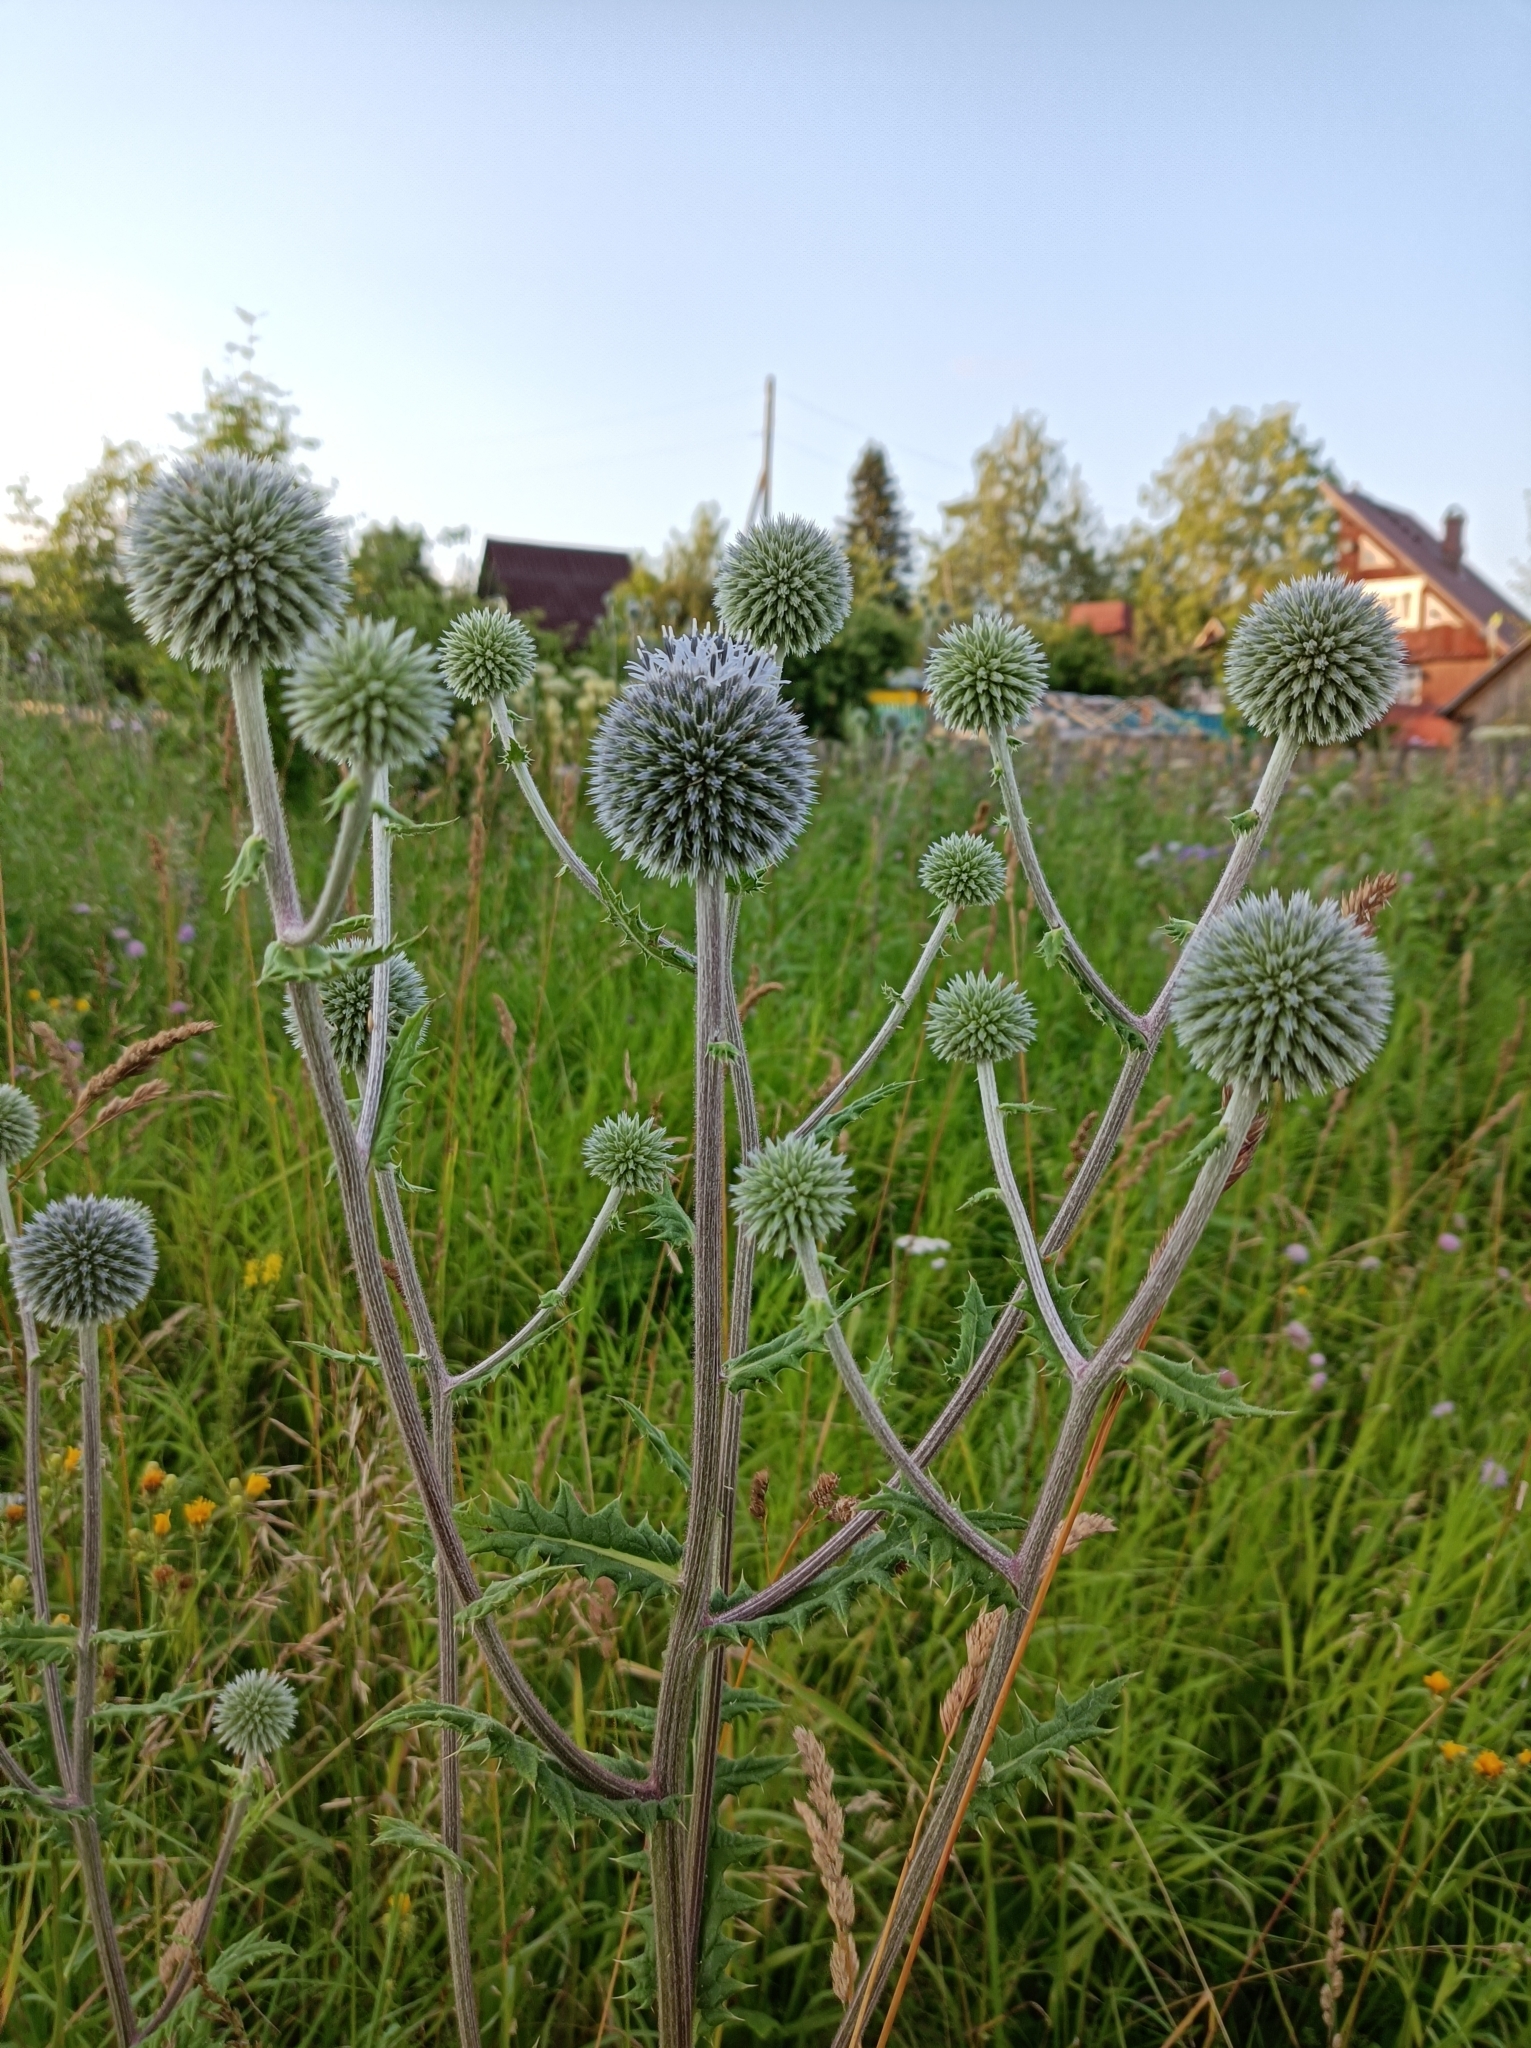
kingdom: Plantae
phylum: Tracheophyta
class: Magnoliopsida
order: Asterales
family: Asteraceae
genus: Echinops
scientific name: Echinops sphaerocephalus
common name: Glandular globe-thistle
